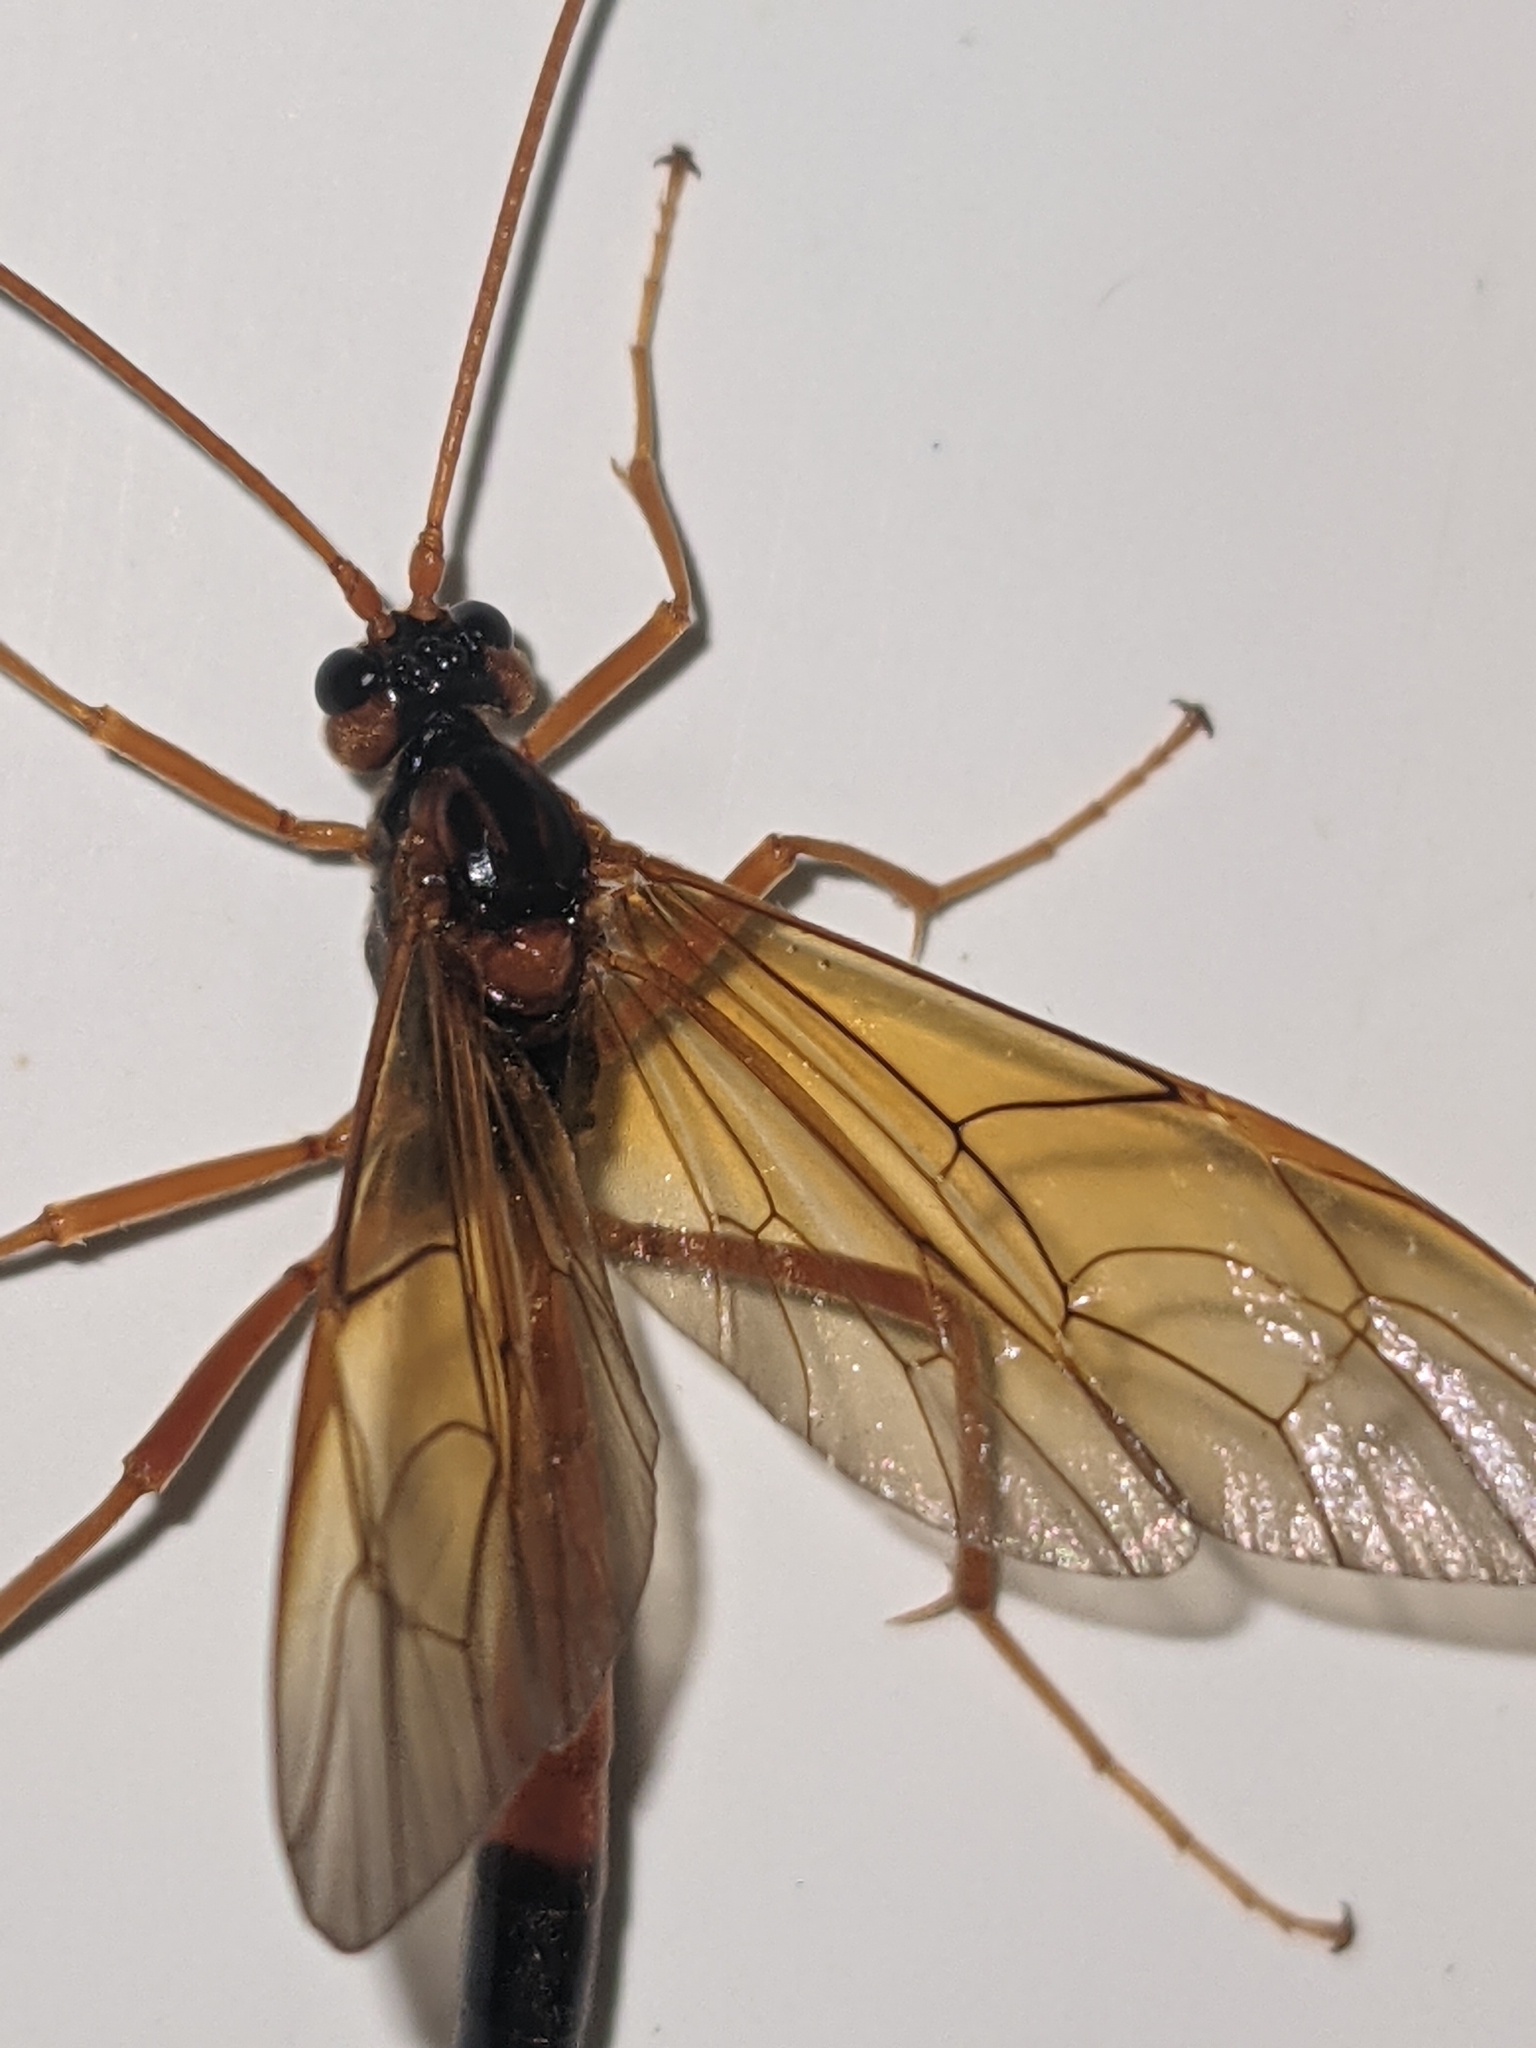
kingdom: Animalia
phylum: Arthropoda
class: Insecta
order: Hymenoptera
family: Ichneumonidae
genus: Opheltes
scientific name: Opheltes glaucopterus
